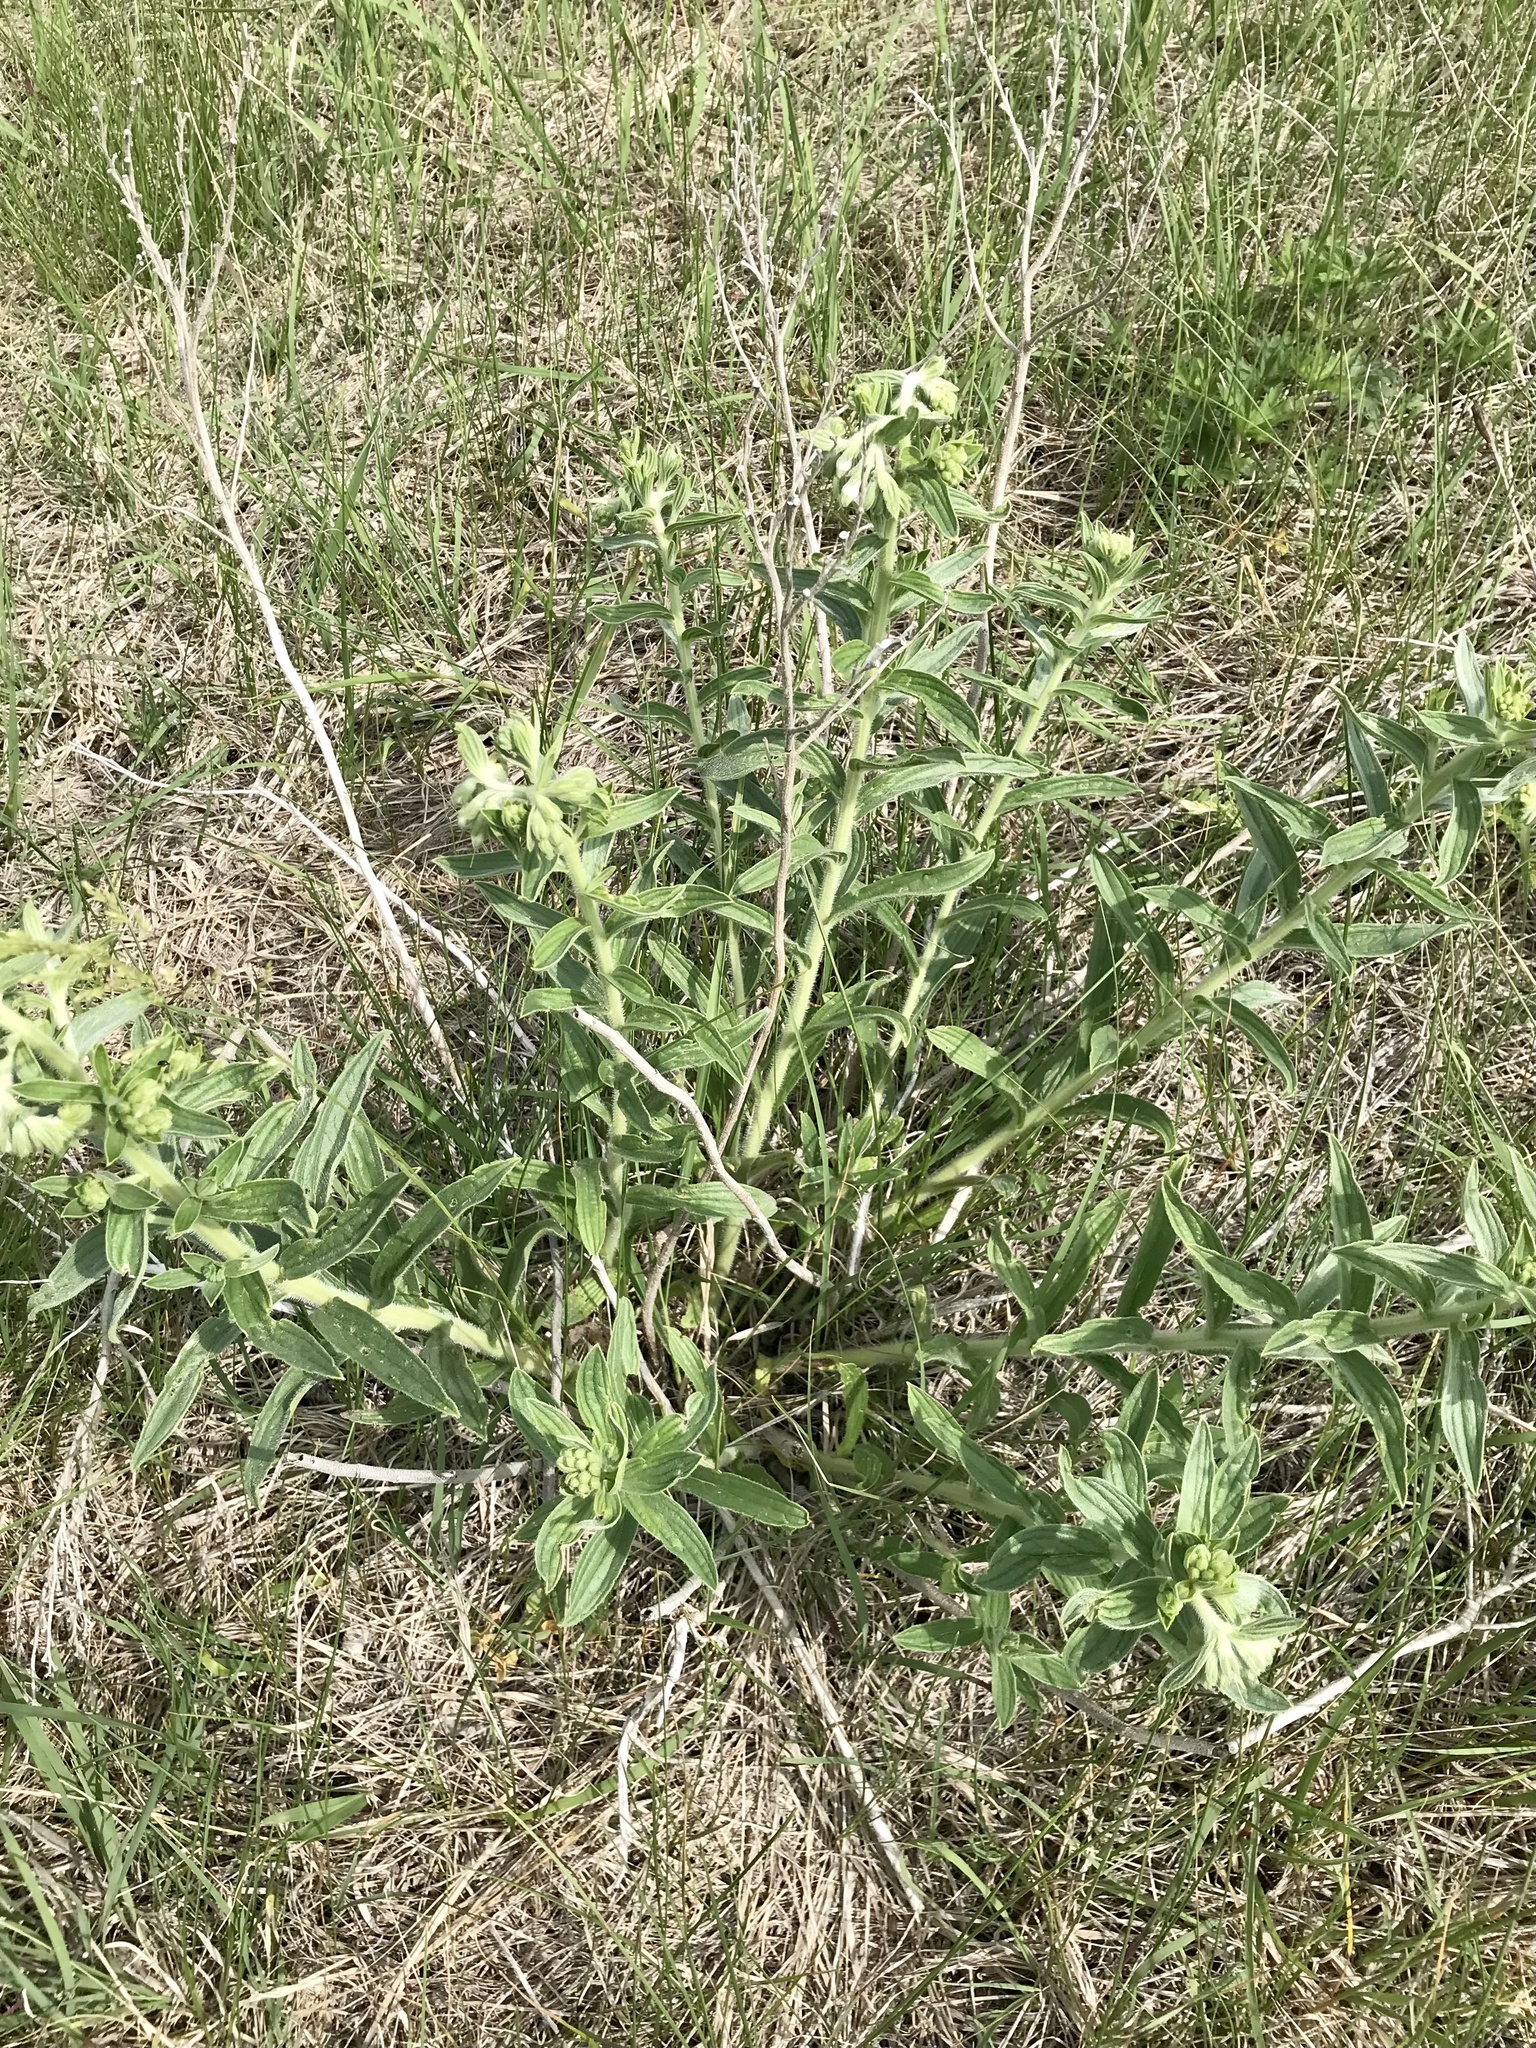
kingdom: Plantae
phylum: Tracheophyta
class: Magnoliopsida
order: Boraginales
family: Boraginaceae
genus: Lithospermum
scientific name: Lithospermum occidentale
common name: Western false gromwell
